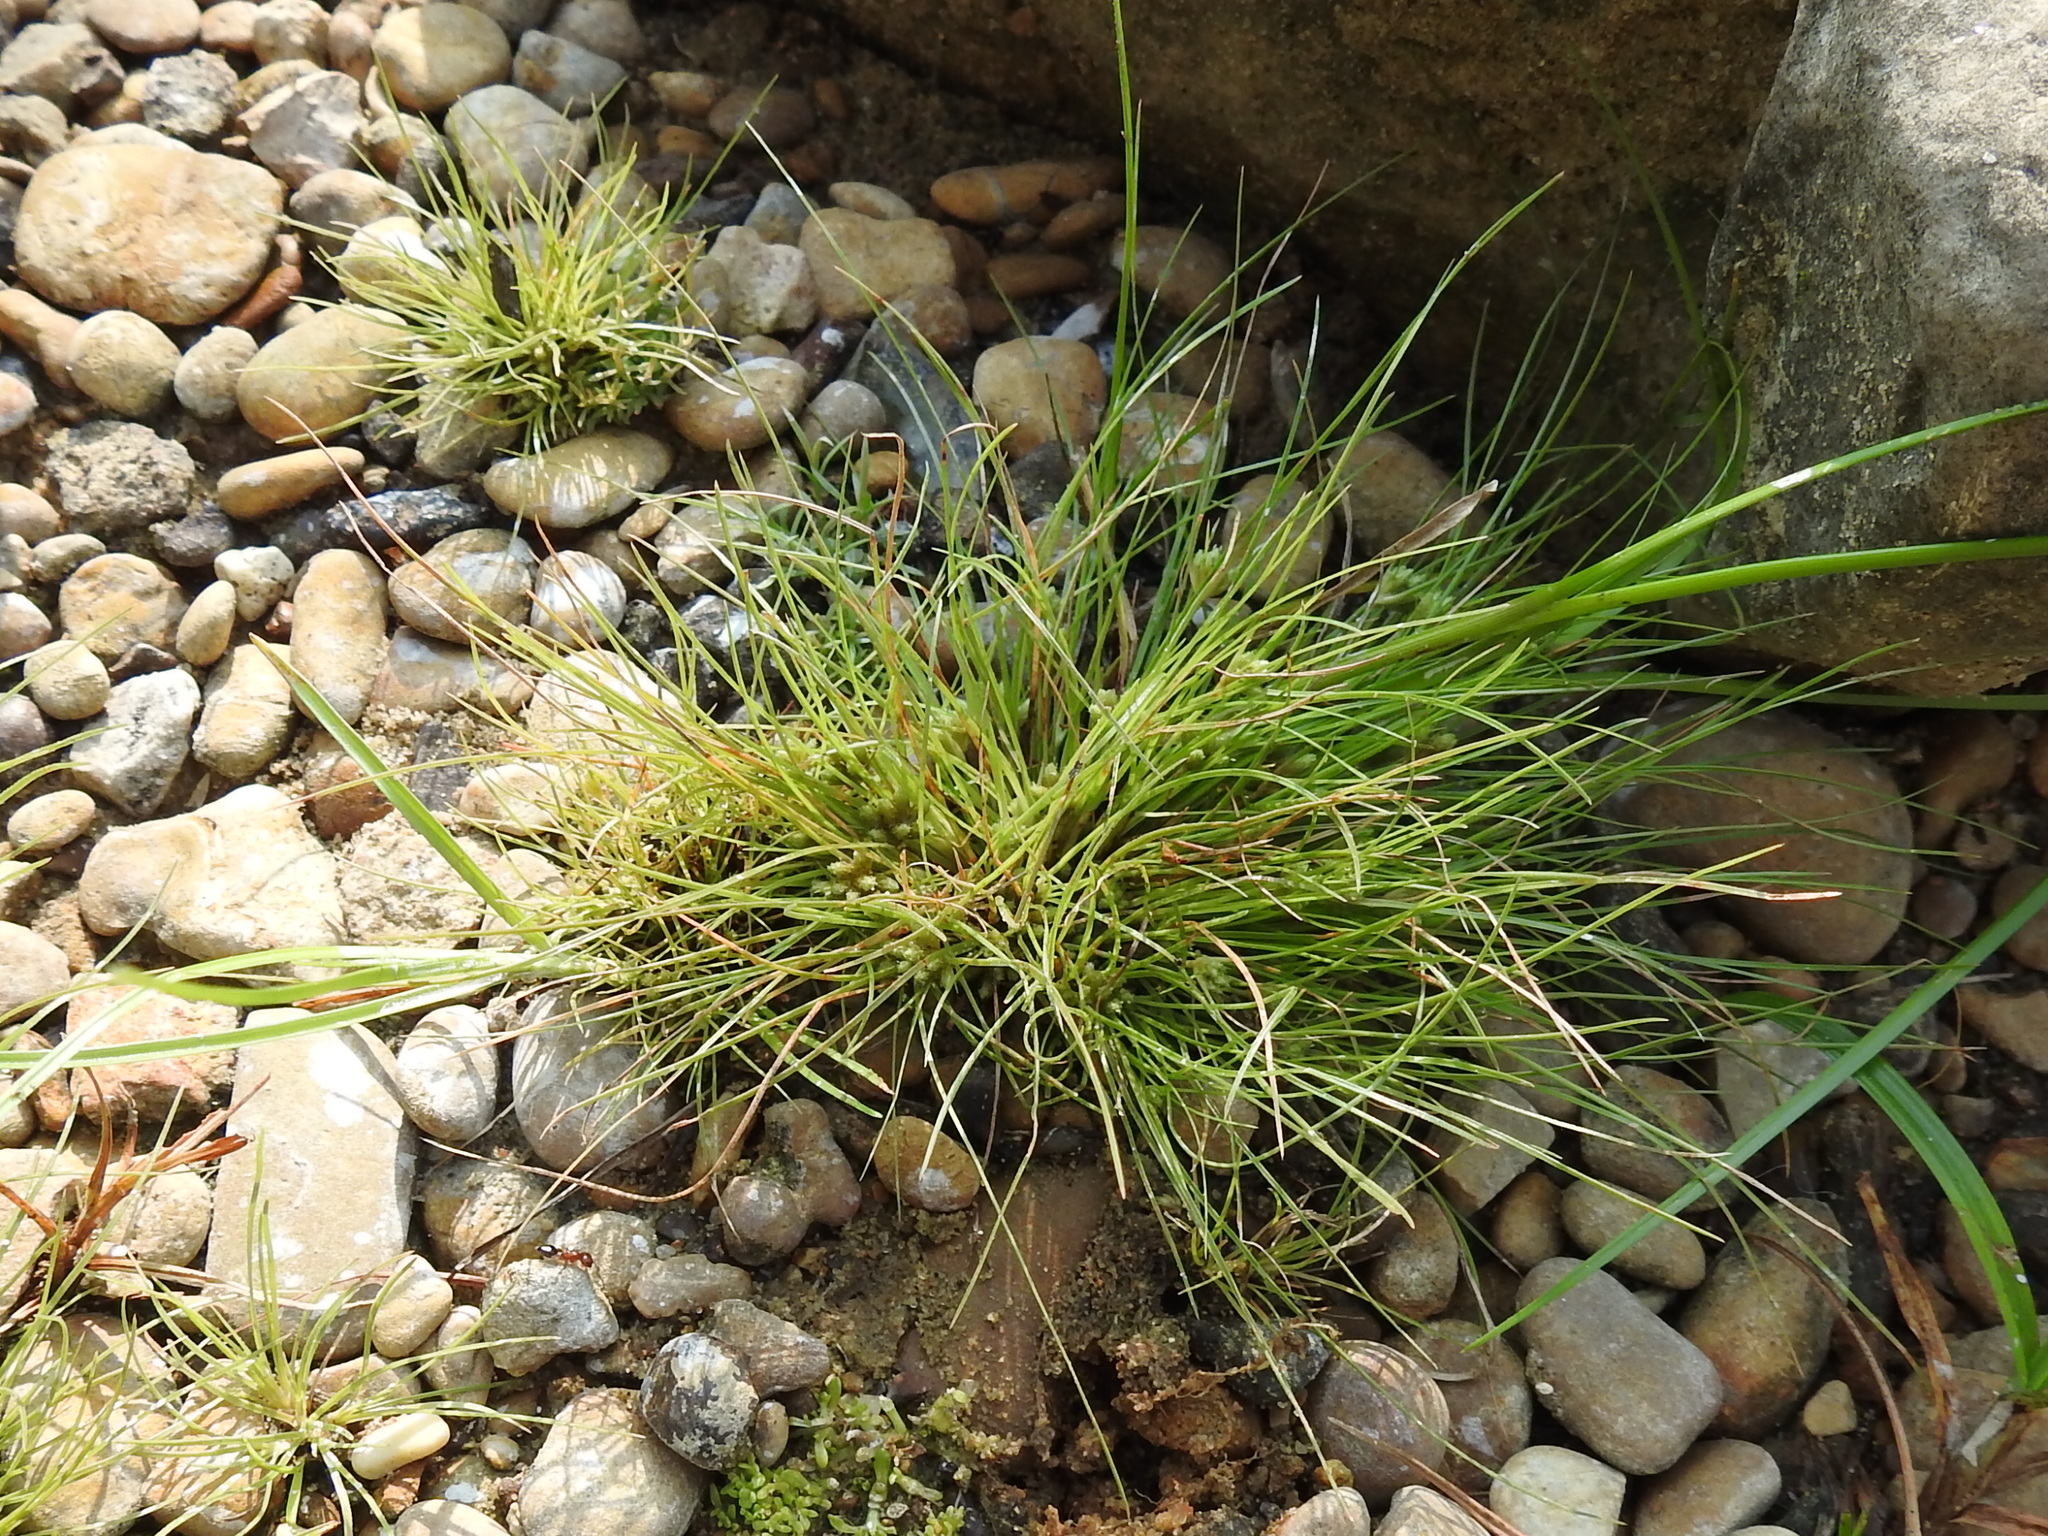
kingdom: Plantae
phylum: Tracheophyta
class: Liliopsida
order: Poales
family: Cyperaceae
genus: Fimbristylis
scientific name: Fimbristylis vahlii
